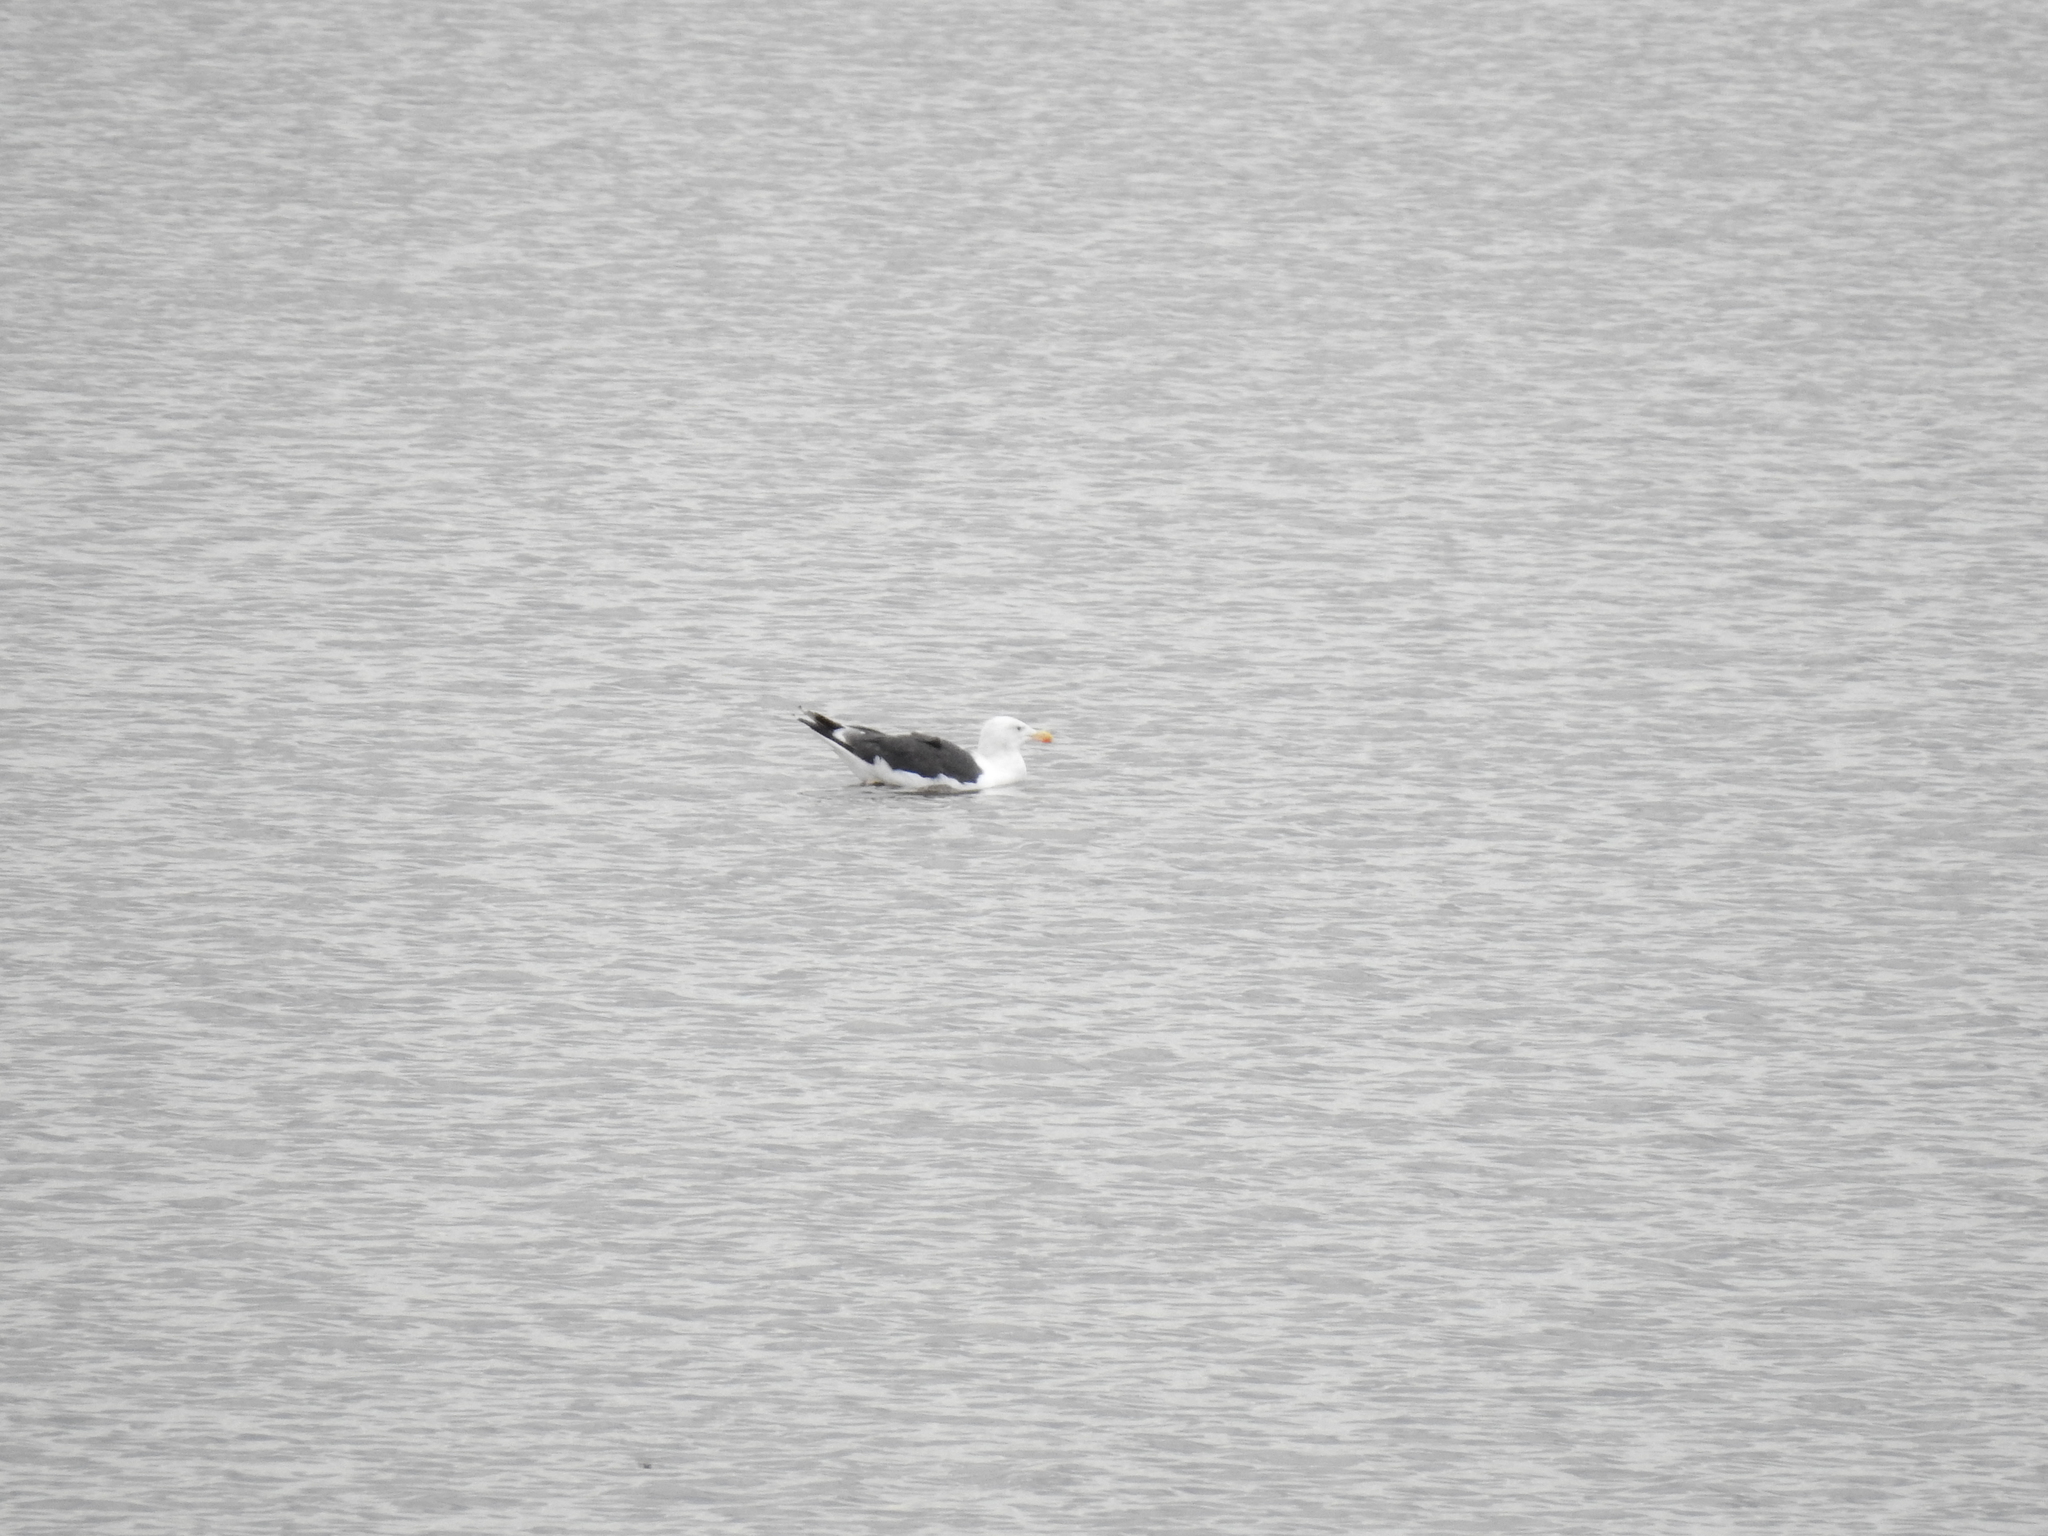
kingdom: Animalia
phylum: Chordata
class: Aves
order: Charadriiformes
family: Laridae
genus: Larus
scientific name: Larus marinus
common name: Great black-backed gull
